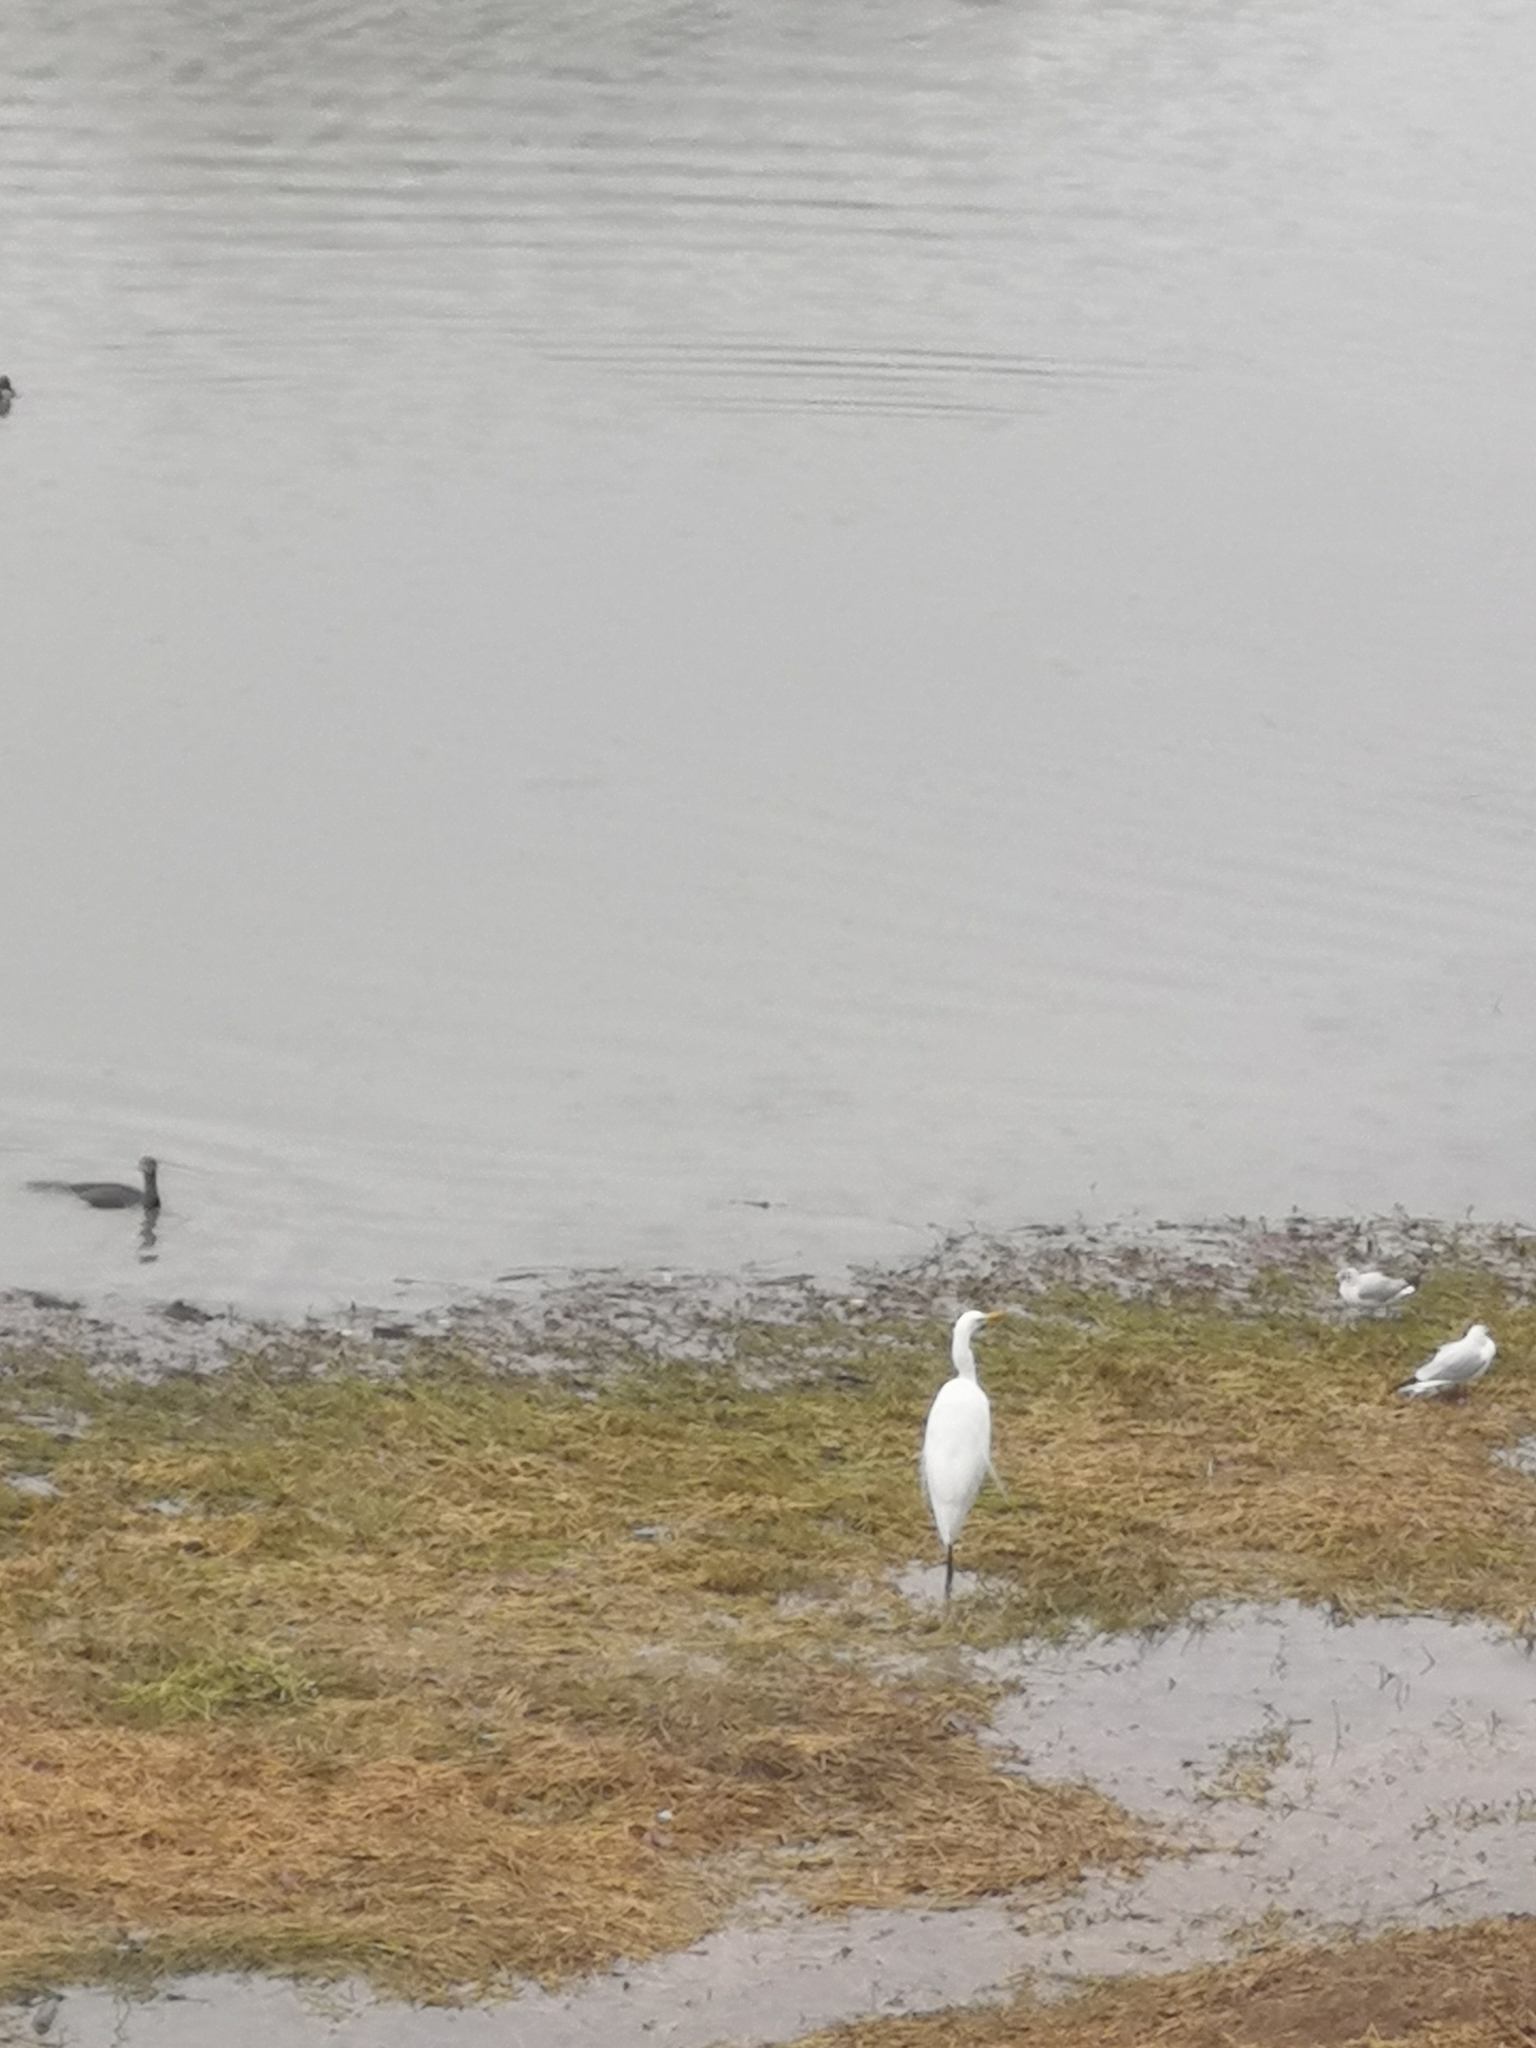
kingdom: Animalia
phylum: Chordata
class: Aves
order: Pelecaniformes
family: Ardeidae
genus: Ardea
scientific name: Ardea alba
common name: Great egret
